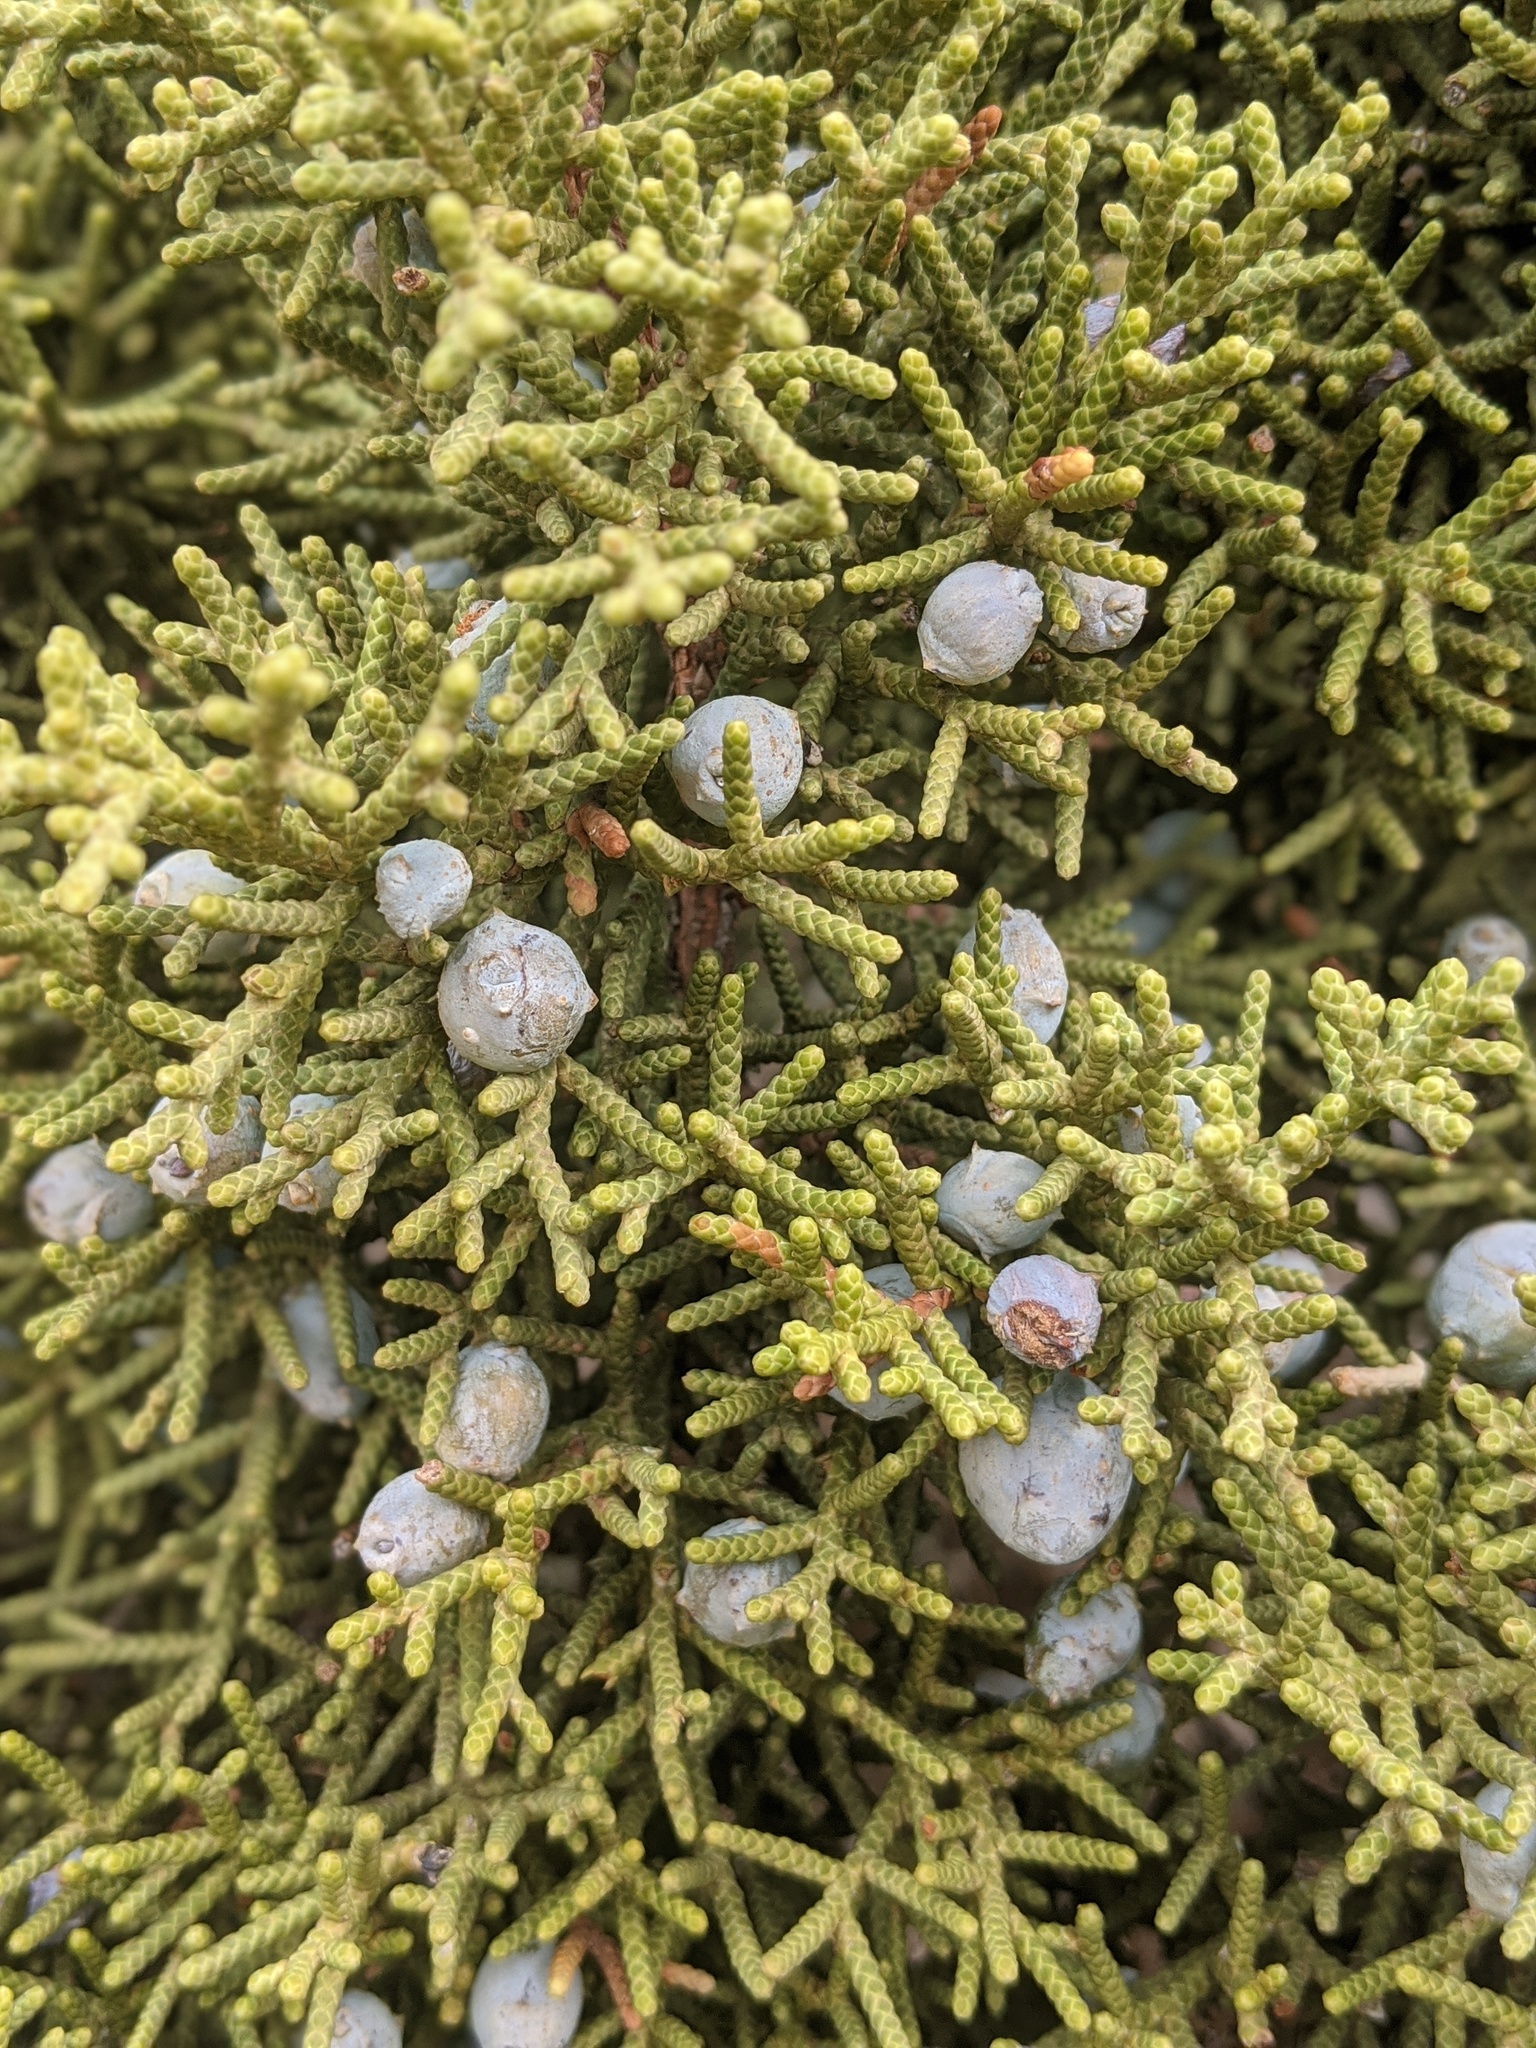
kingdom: Plantae
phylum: Tracheophyta
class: Pinopsida
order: Pinales
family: Cupressaceae
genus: Juniperus
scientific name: Juniperus californica
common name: California juniper
